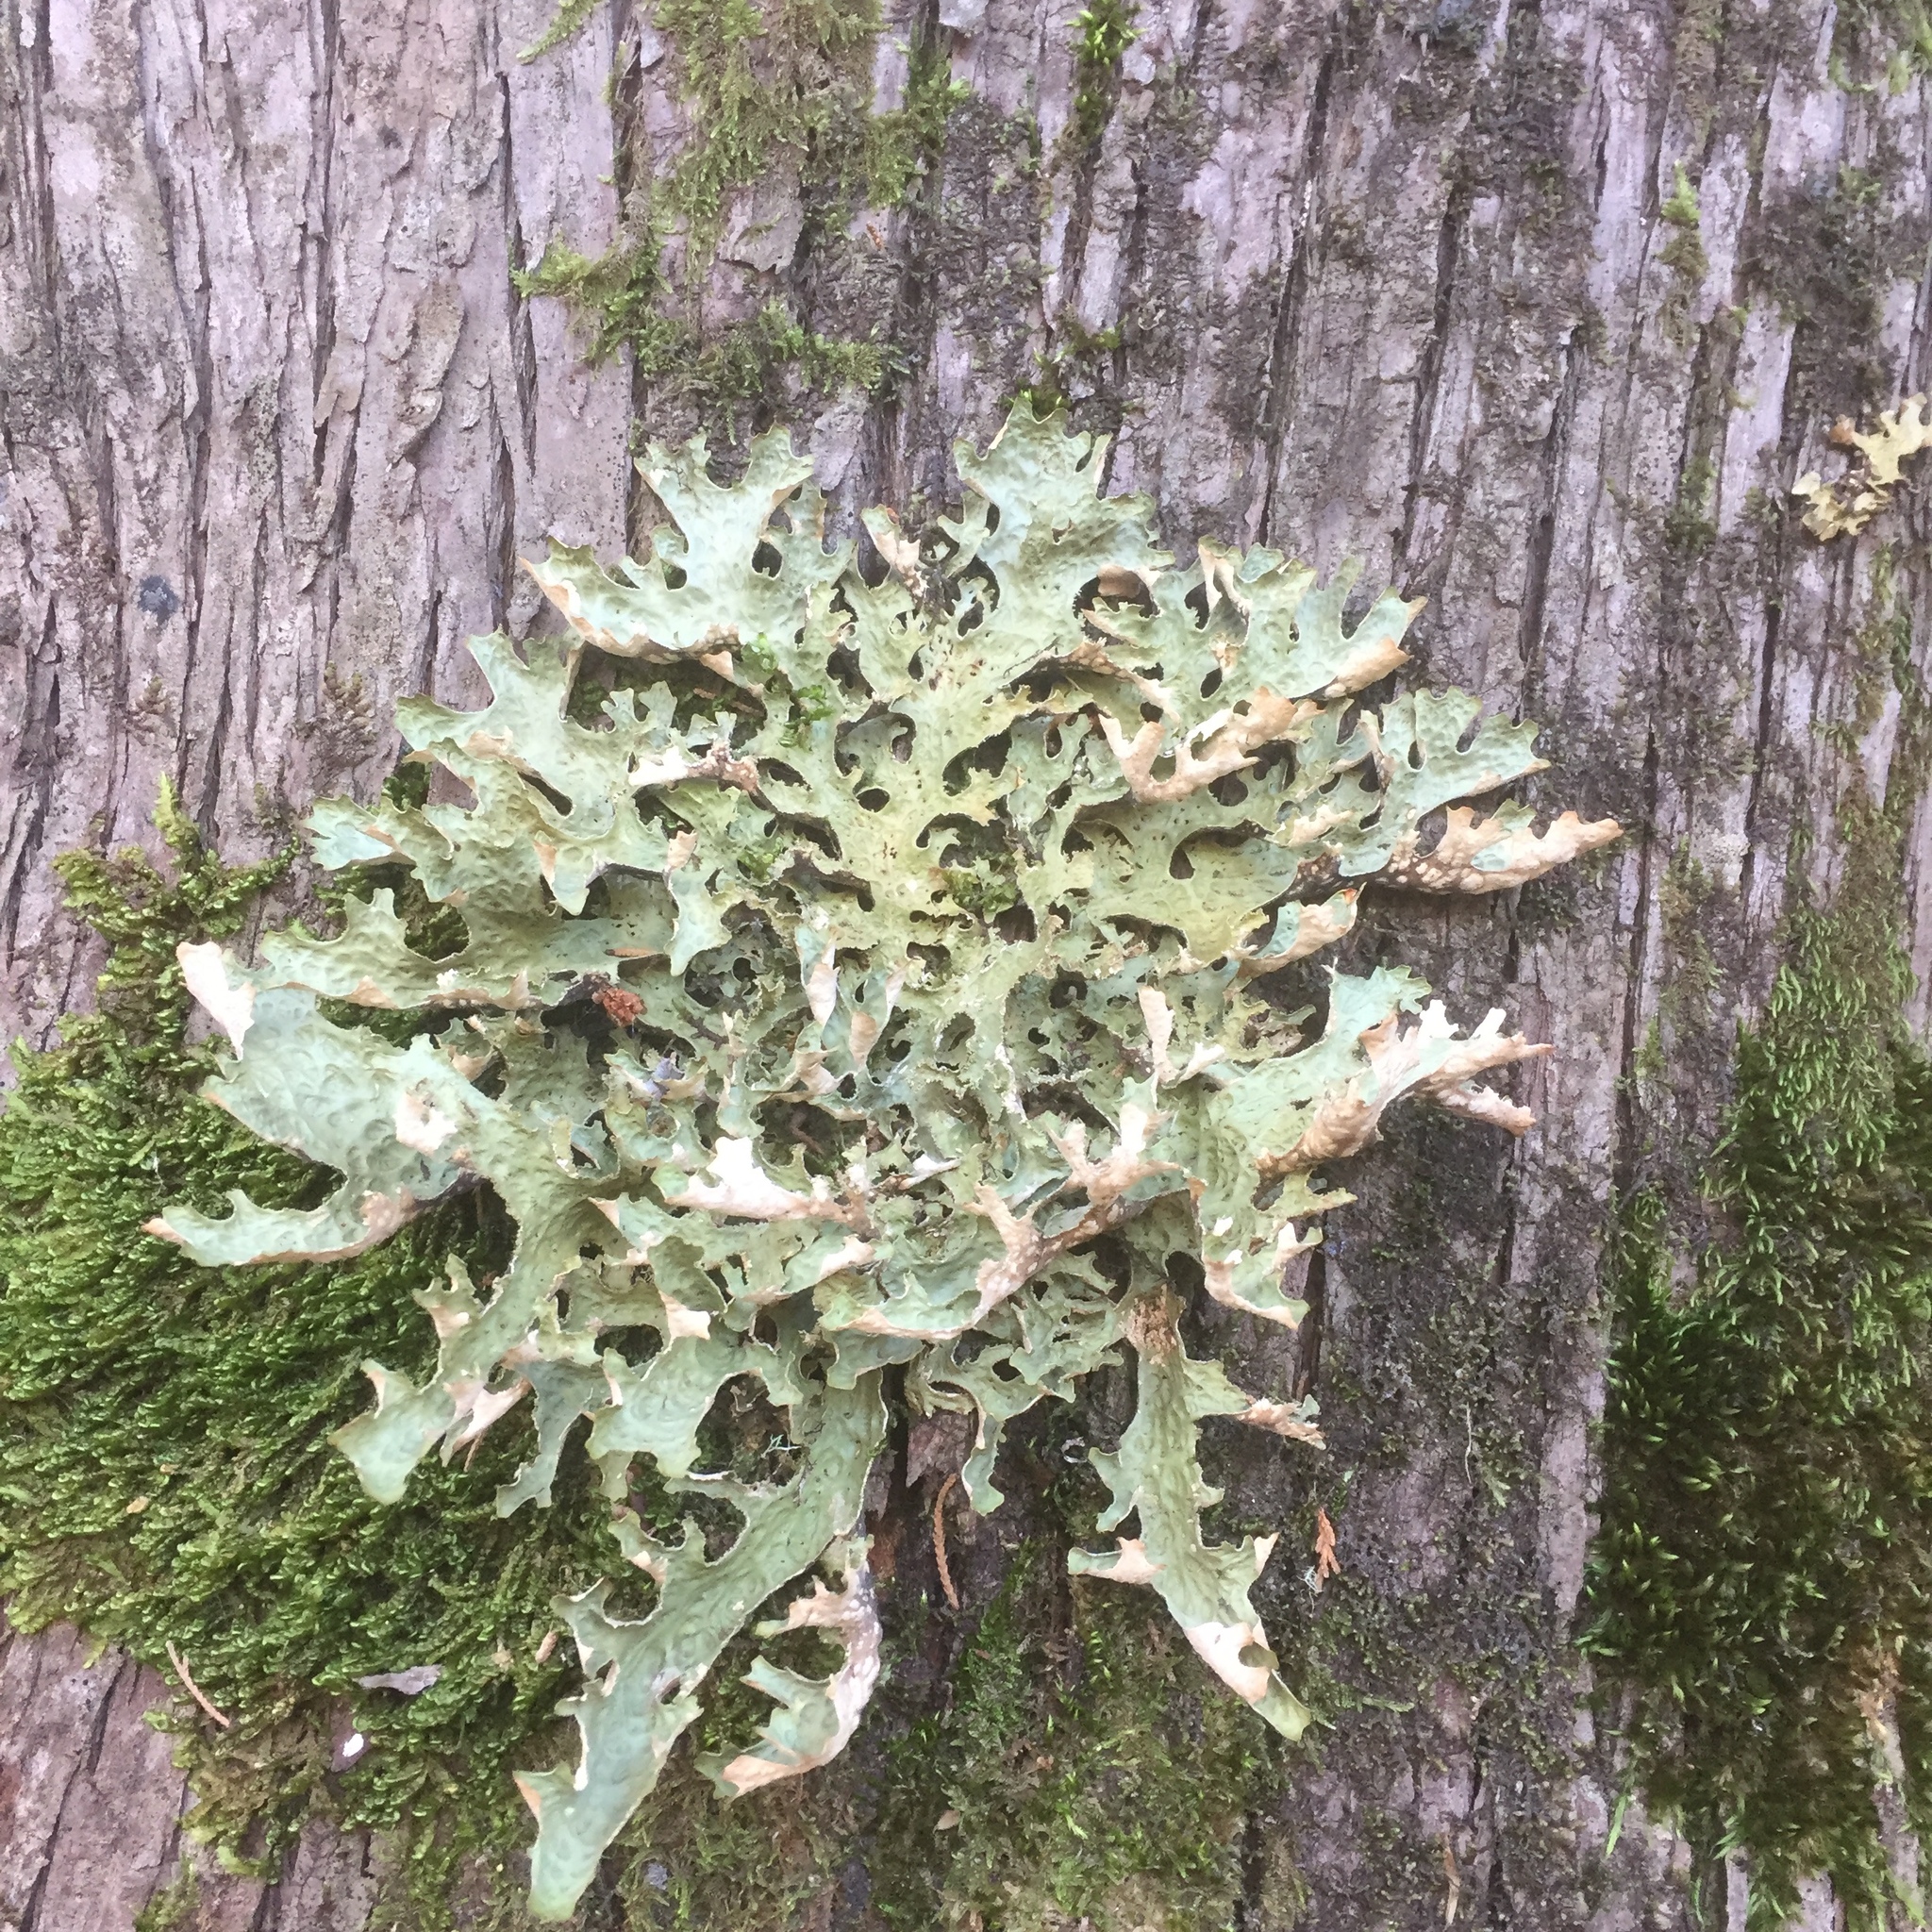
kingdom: Fungi
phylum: Ascomycota
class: Lecanoromycetes
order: Peltigerales
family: Lobariaceae
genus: Lobaria
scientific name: Lobaria pulmonaria
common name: Lungwort
